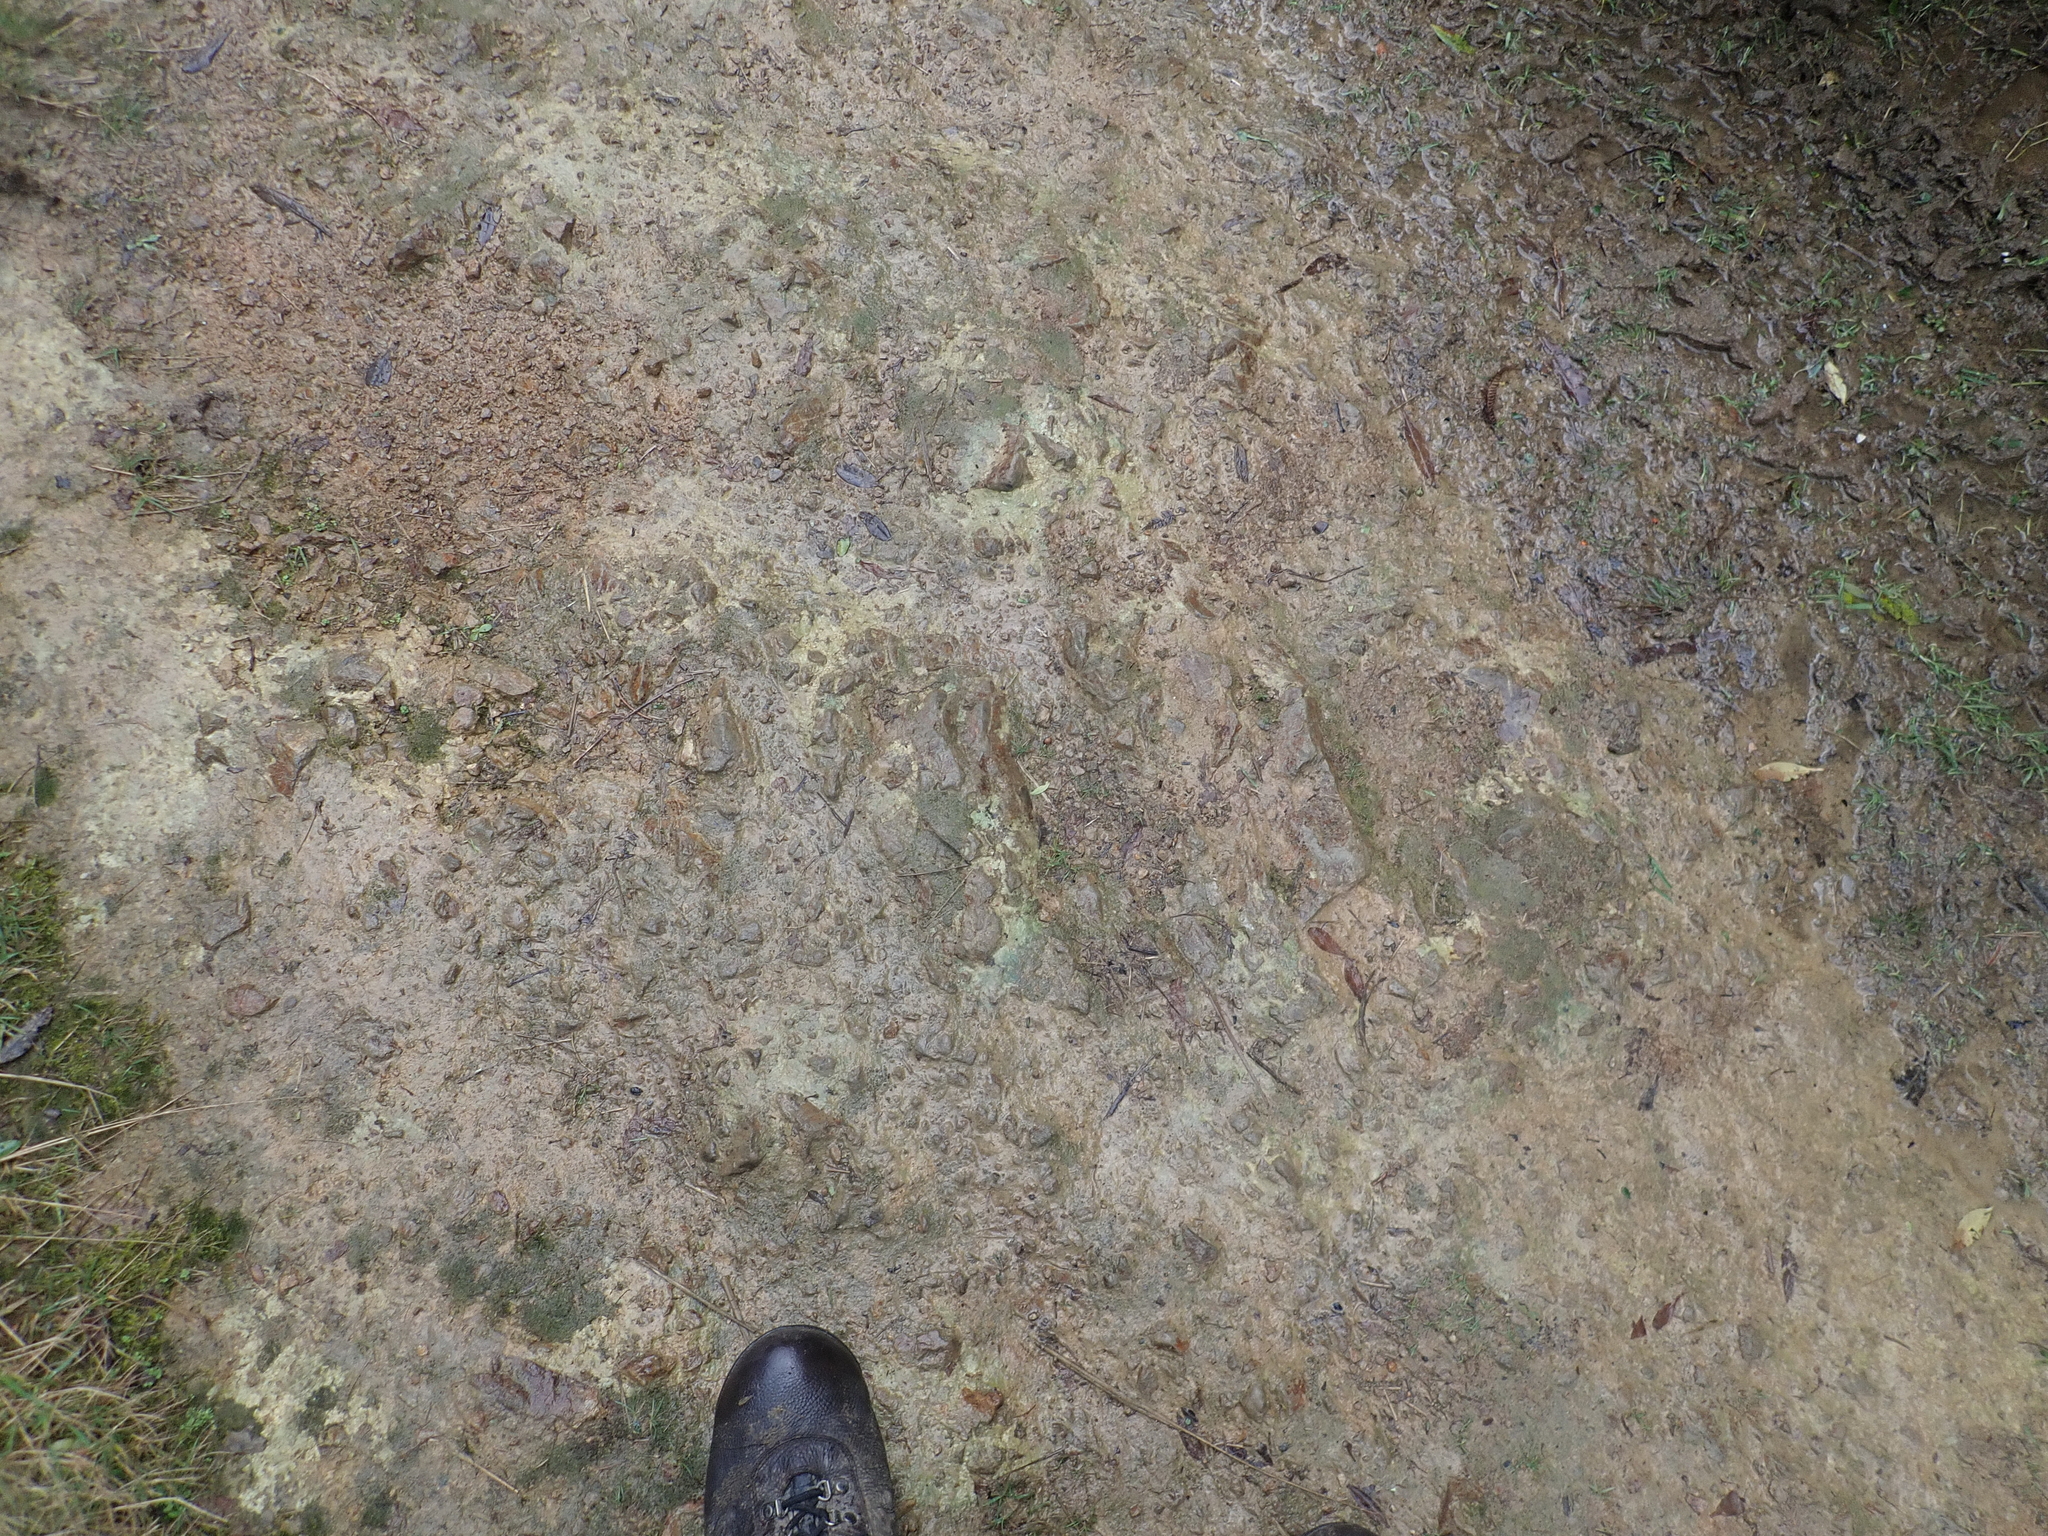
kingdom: Fungi
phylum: Ascomycota
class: Lecanoromycetes
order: Baeomycetales
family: Baeomycetaceae
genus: Baeomyces
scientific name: Baeomyces heteromorphus
